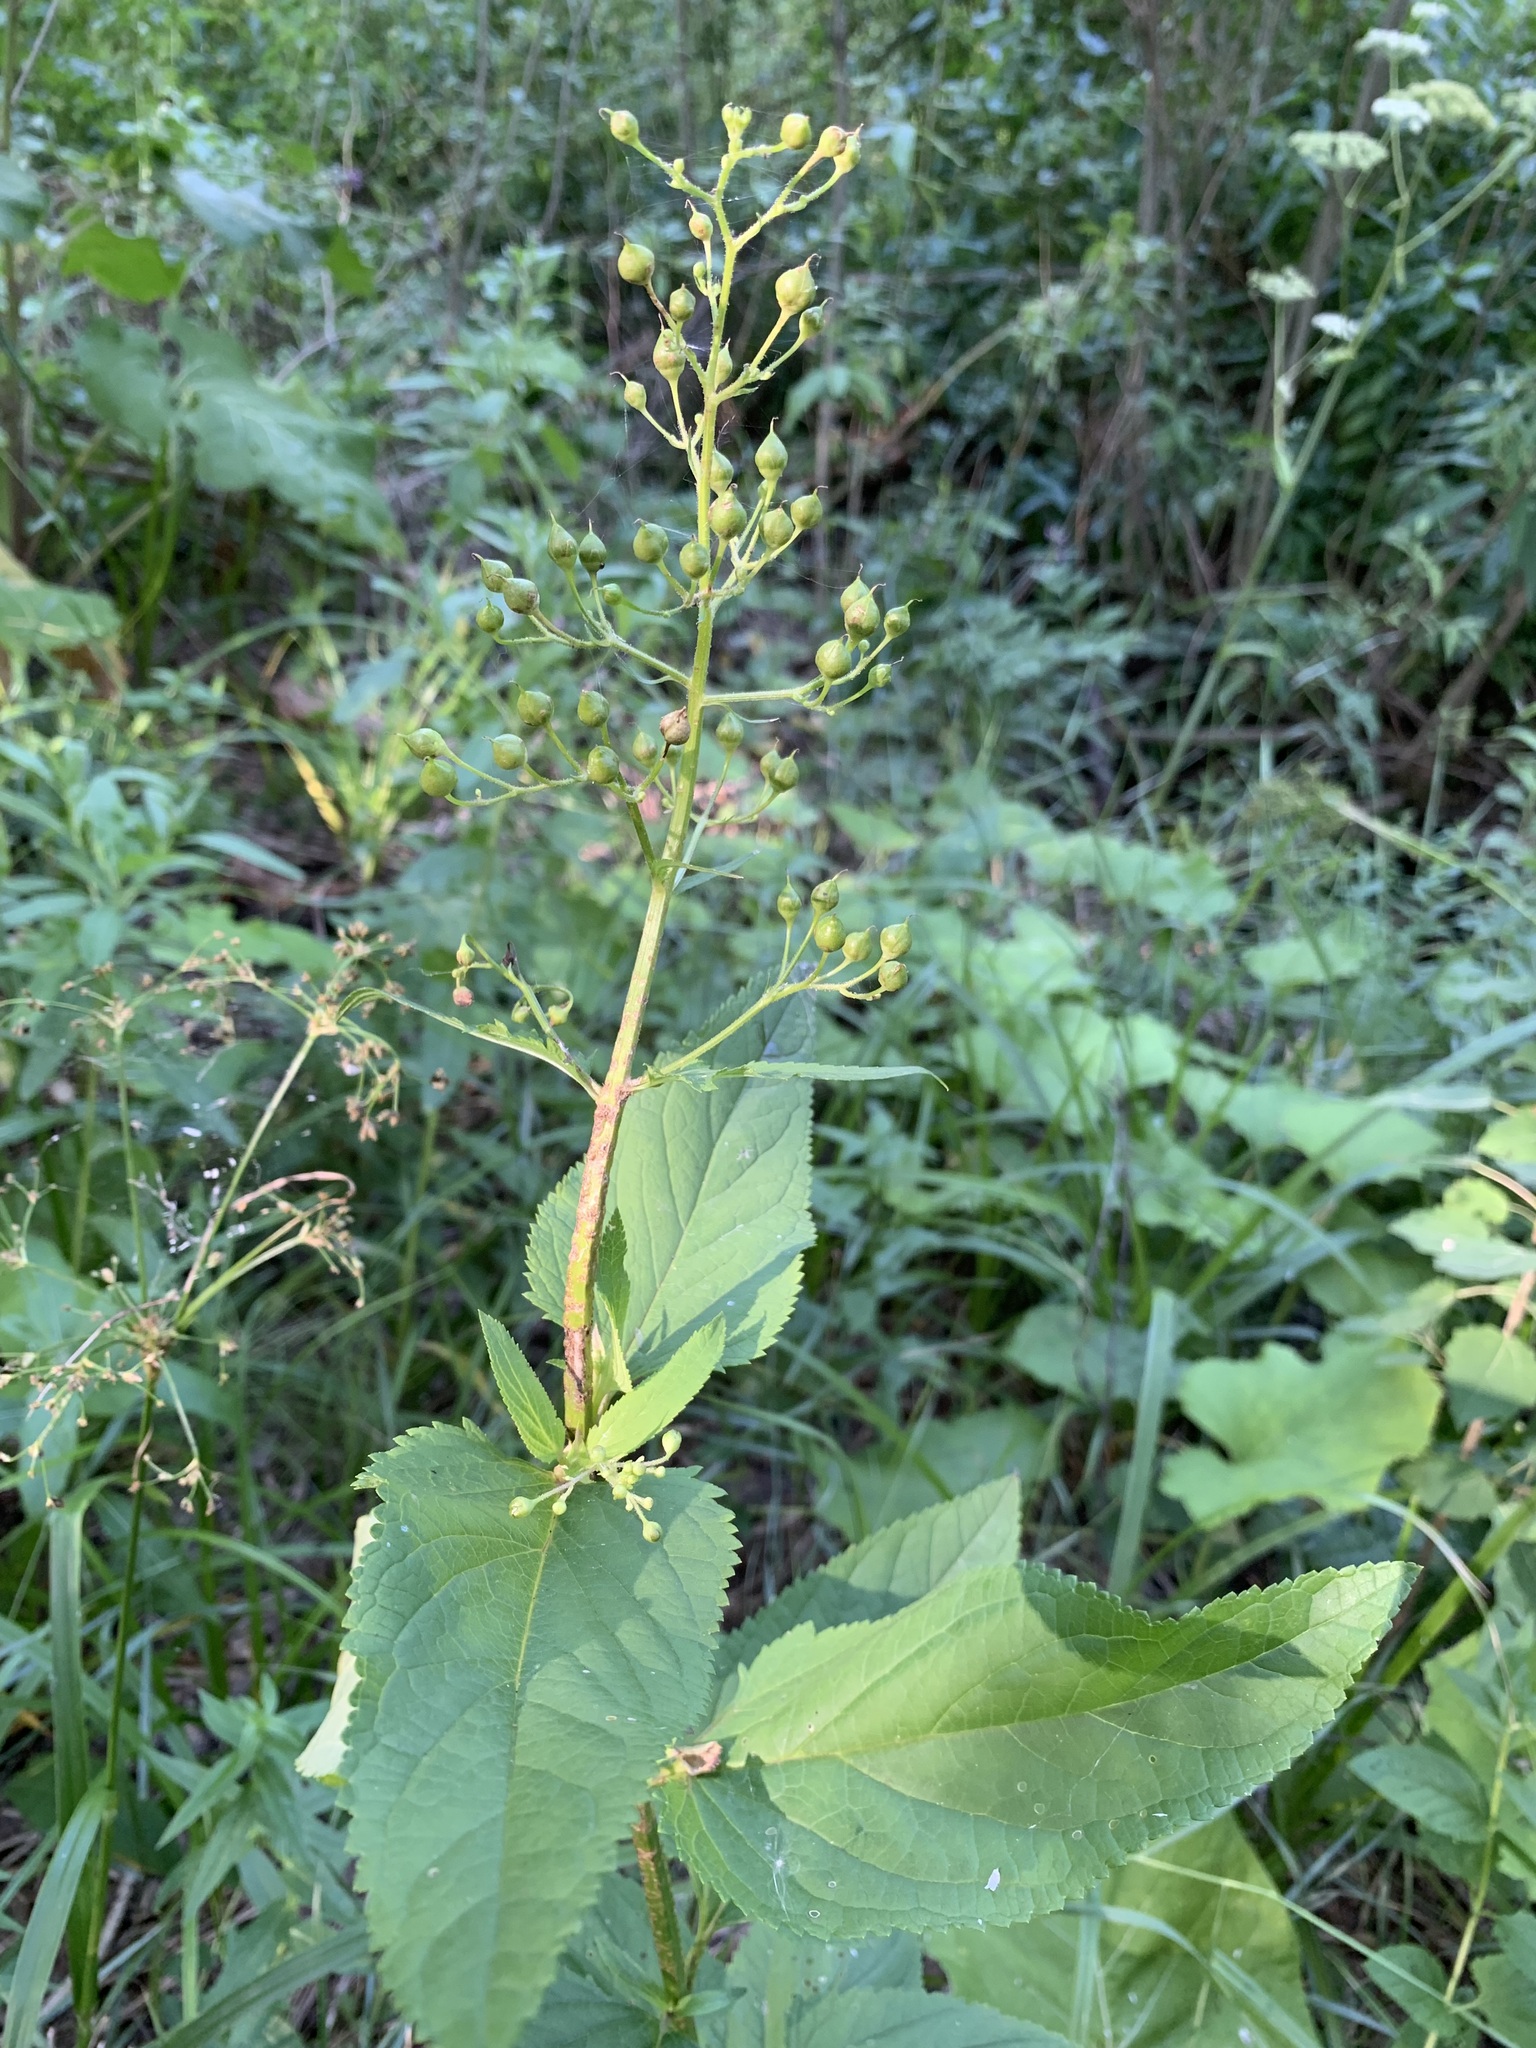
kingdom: Plantae
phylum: Tracheophyta
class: Magnoliopsida
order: Lamiales
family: Scrophulariaceae
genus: Scrophularia
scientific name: Scrophularia nodosa
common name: Common figwort
